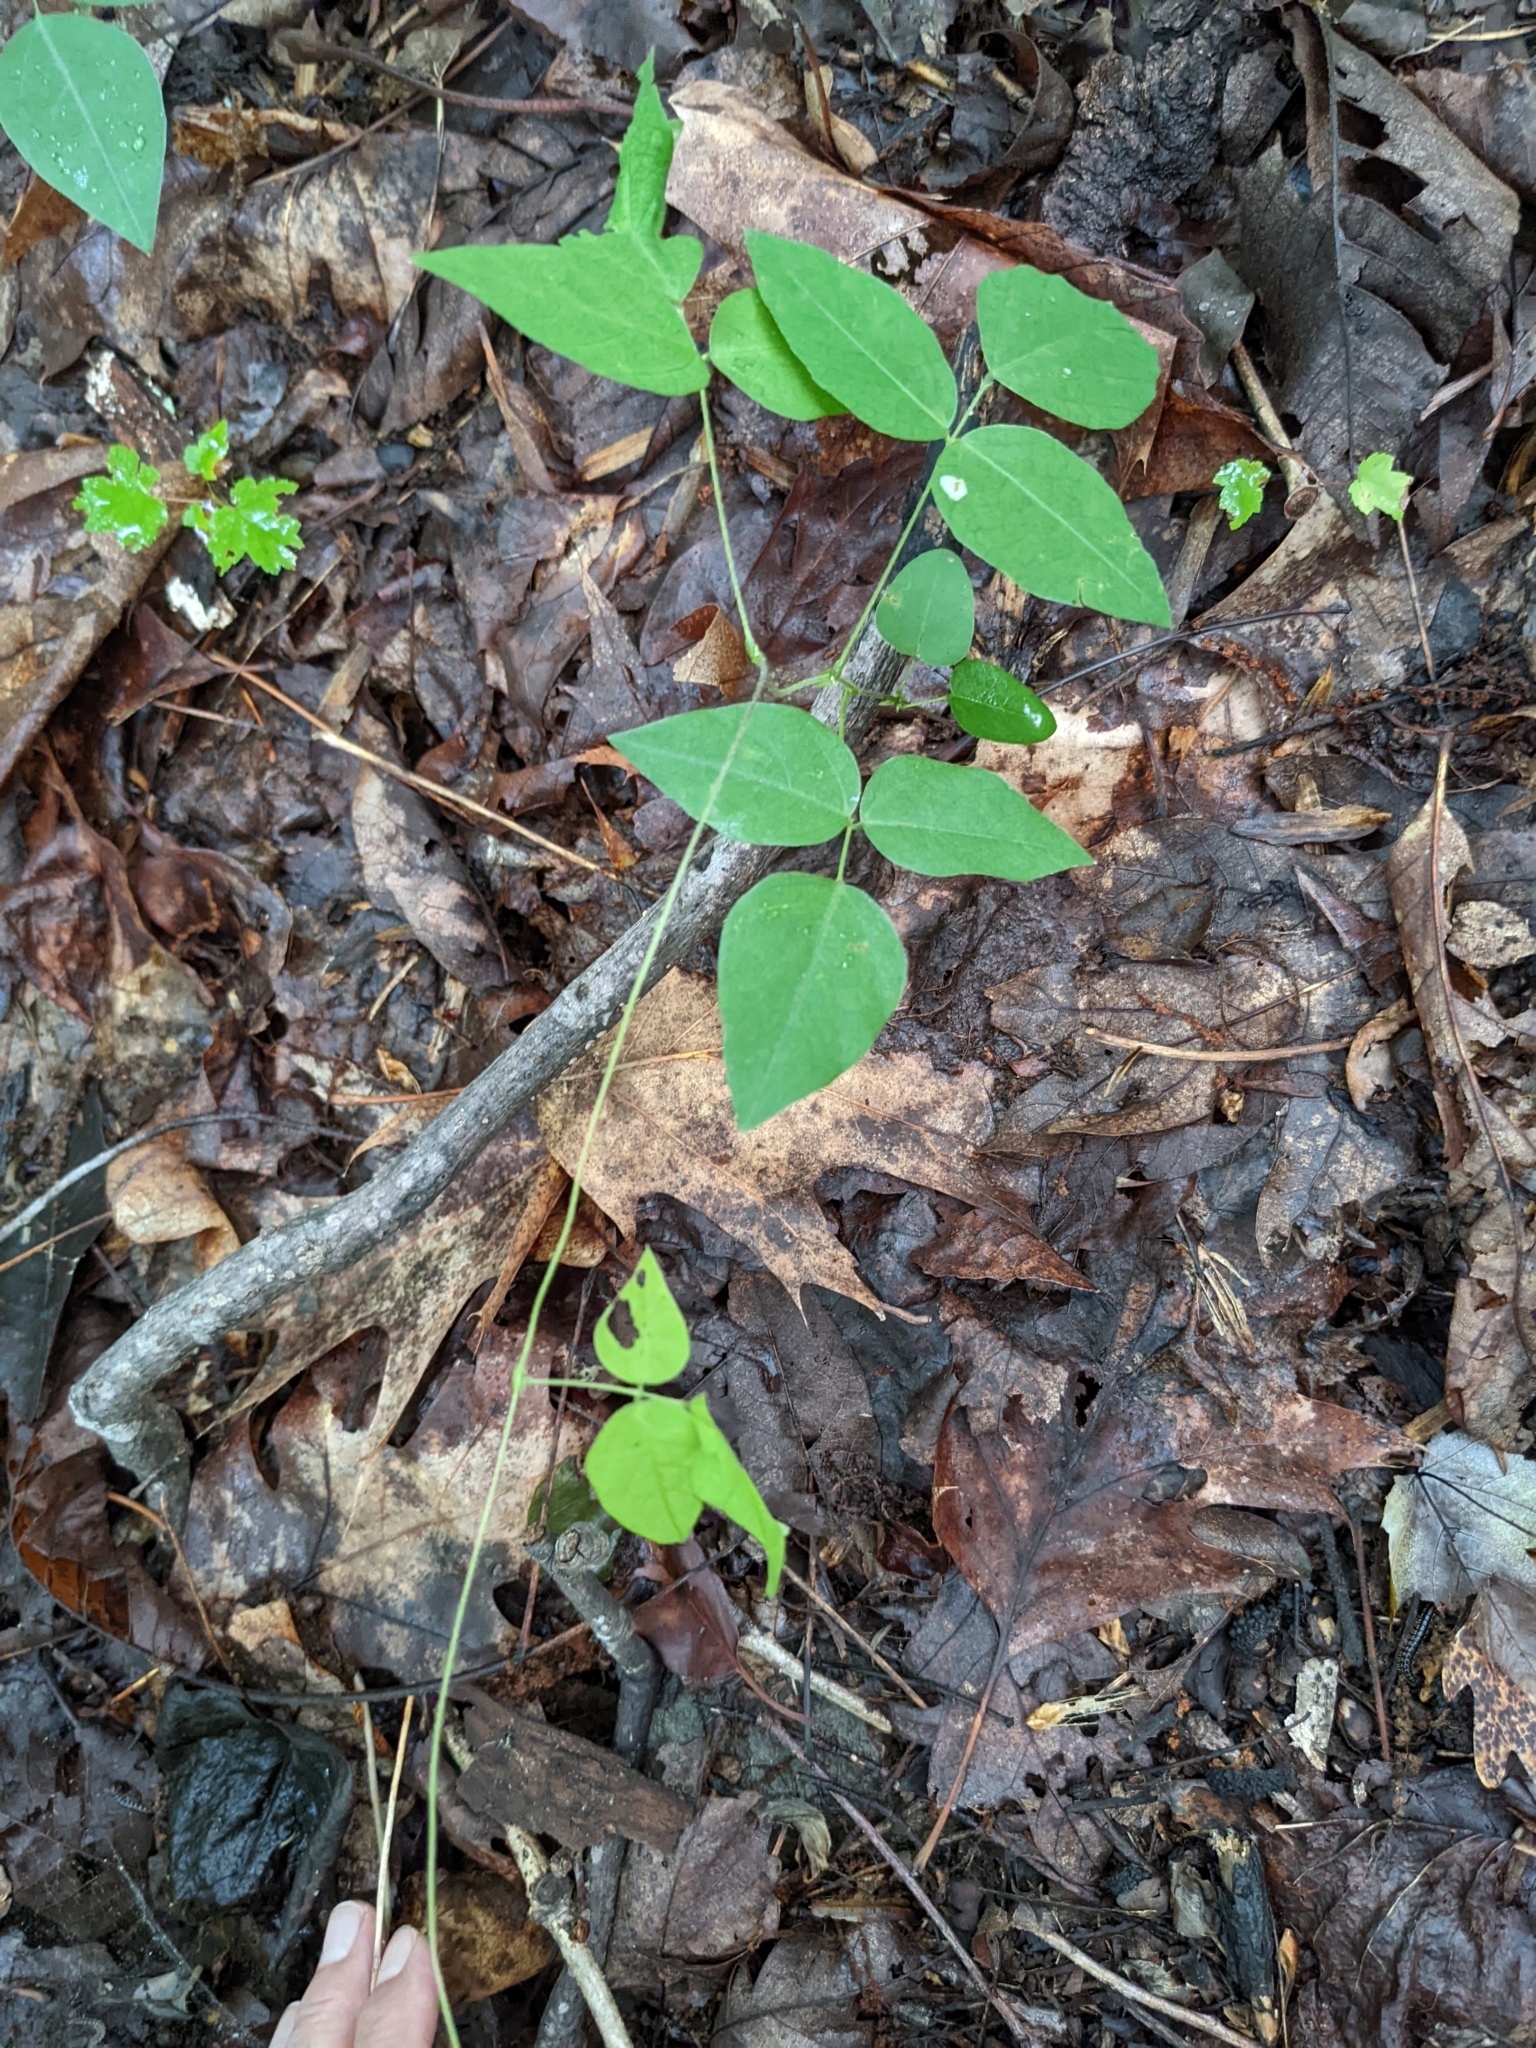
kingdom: Plantae
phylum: Tracheophyta
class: Magnoliopsida
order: Fabales
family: Fabaceae
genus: Amphicarpaea
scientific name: Amphicarpaea bracteata
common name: American hog peanut
